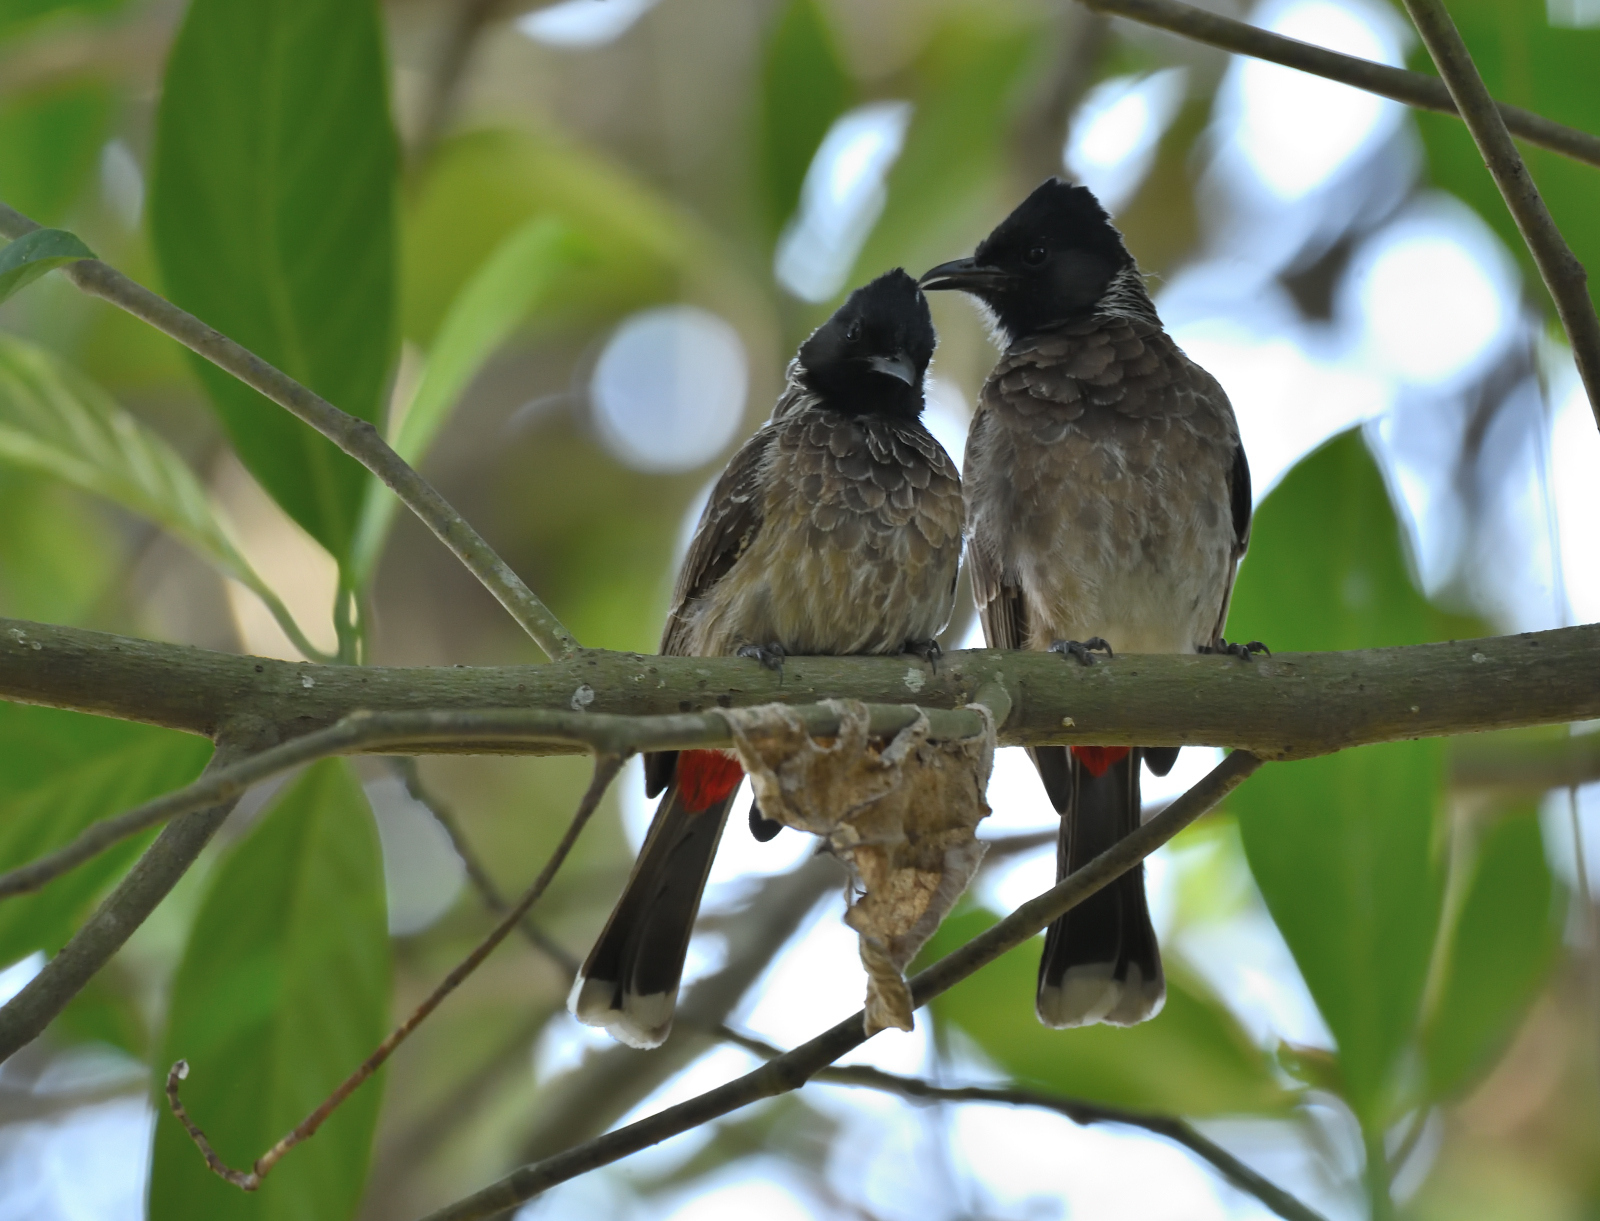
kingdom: Animalia
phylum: Chordata
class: Aves
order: Passeriformes
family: Pycnonotidae
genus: Pycnonotus
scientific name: Pycnonotus cafer
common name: Red-vented bulbul
